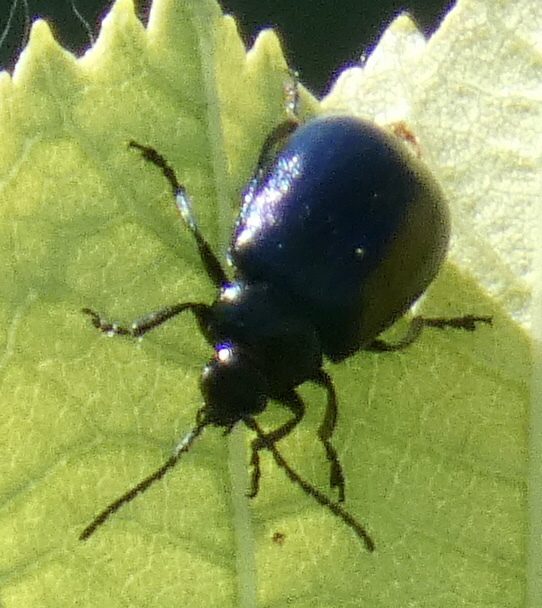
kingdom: Animalia
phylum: Arthropoda
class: Insecta
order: Coleoptera
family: Chrysomelidae
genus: Agelastica
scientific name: Agelastica alni
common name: Alder leaf beetle
